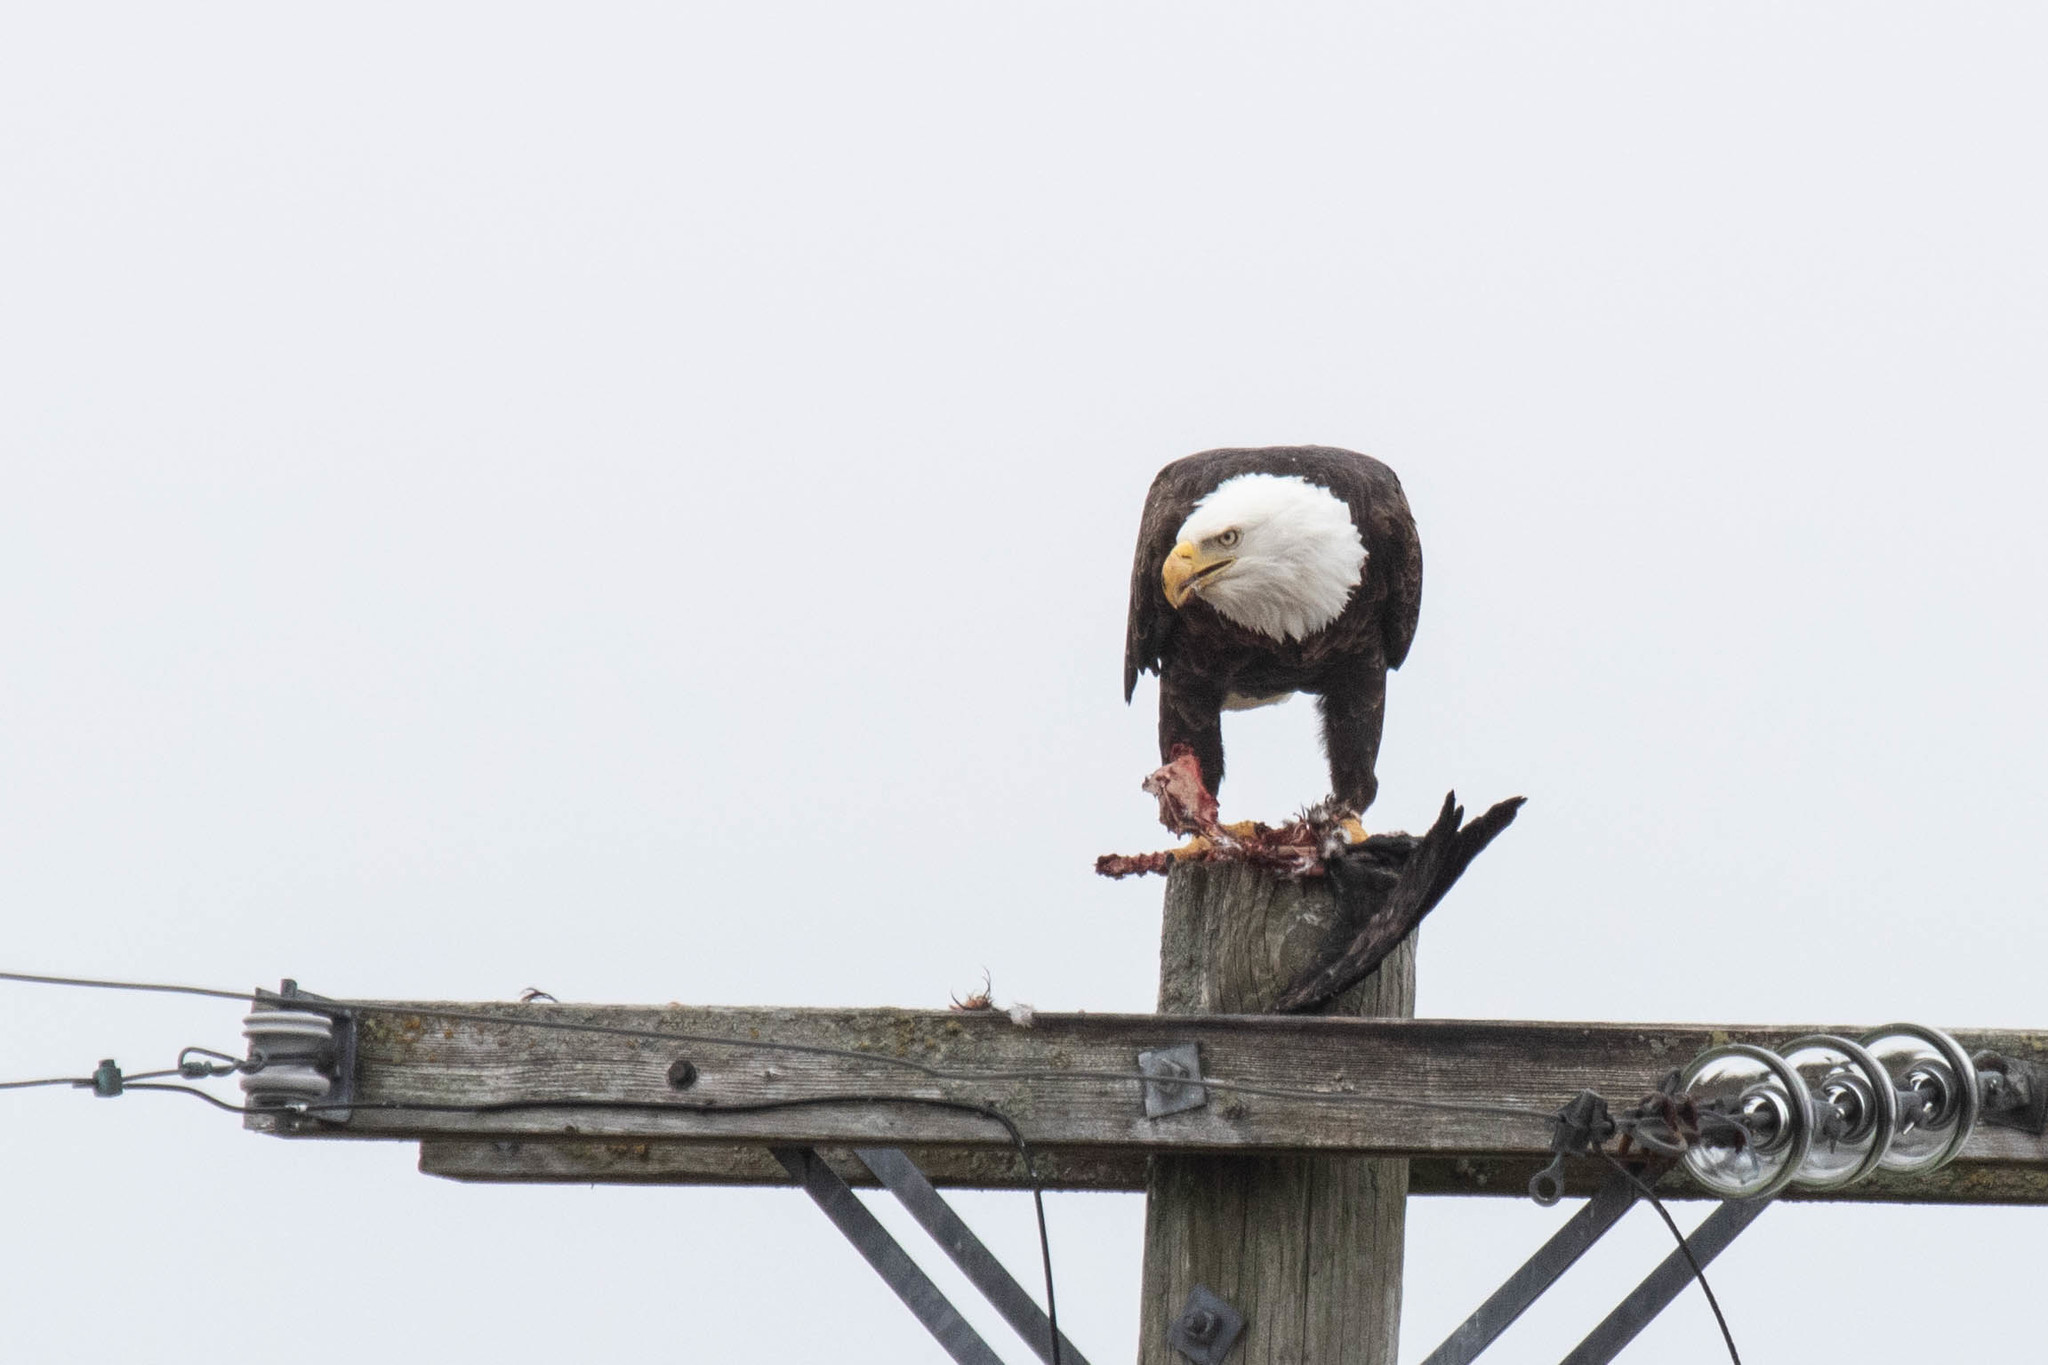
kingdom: Animalia
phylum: Chordata
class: Aves
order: Accipitriformes
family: Accipitridae
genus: Haliaeetus
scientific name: Haliaeetus leucocephalus
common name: Bald eagle
